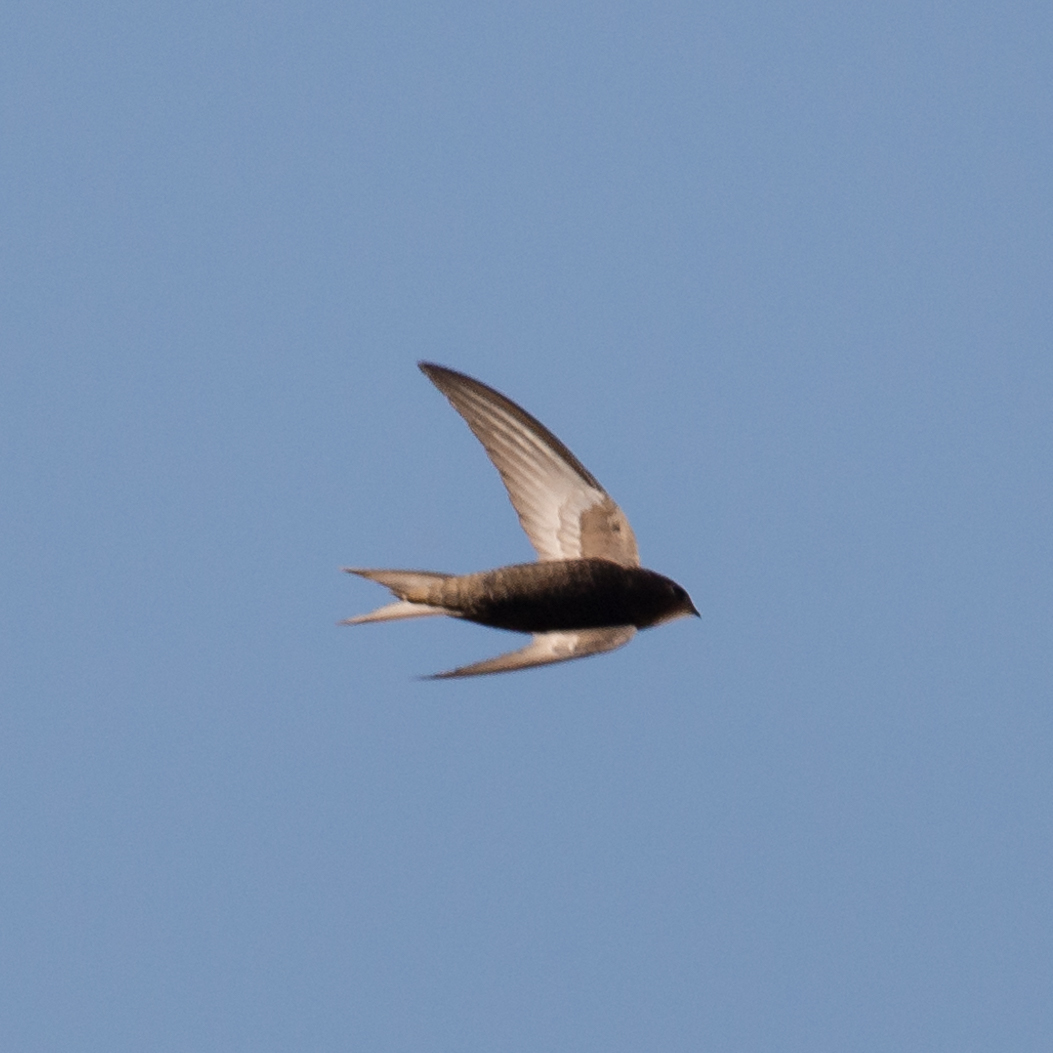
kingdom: Animalia
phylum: Chordata
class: Aves
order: Apodiformes
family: Apodidae
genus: Apus
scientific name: Apus apus
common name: Common swift
